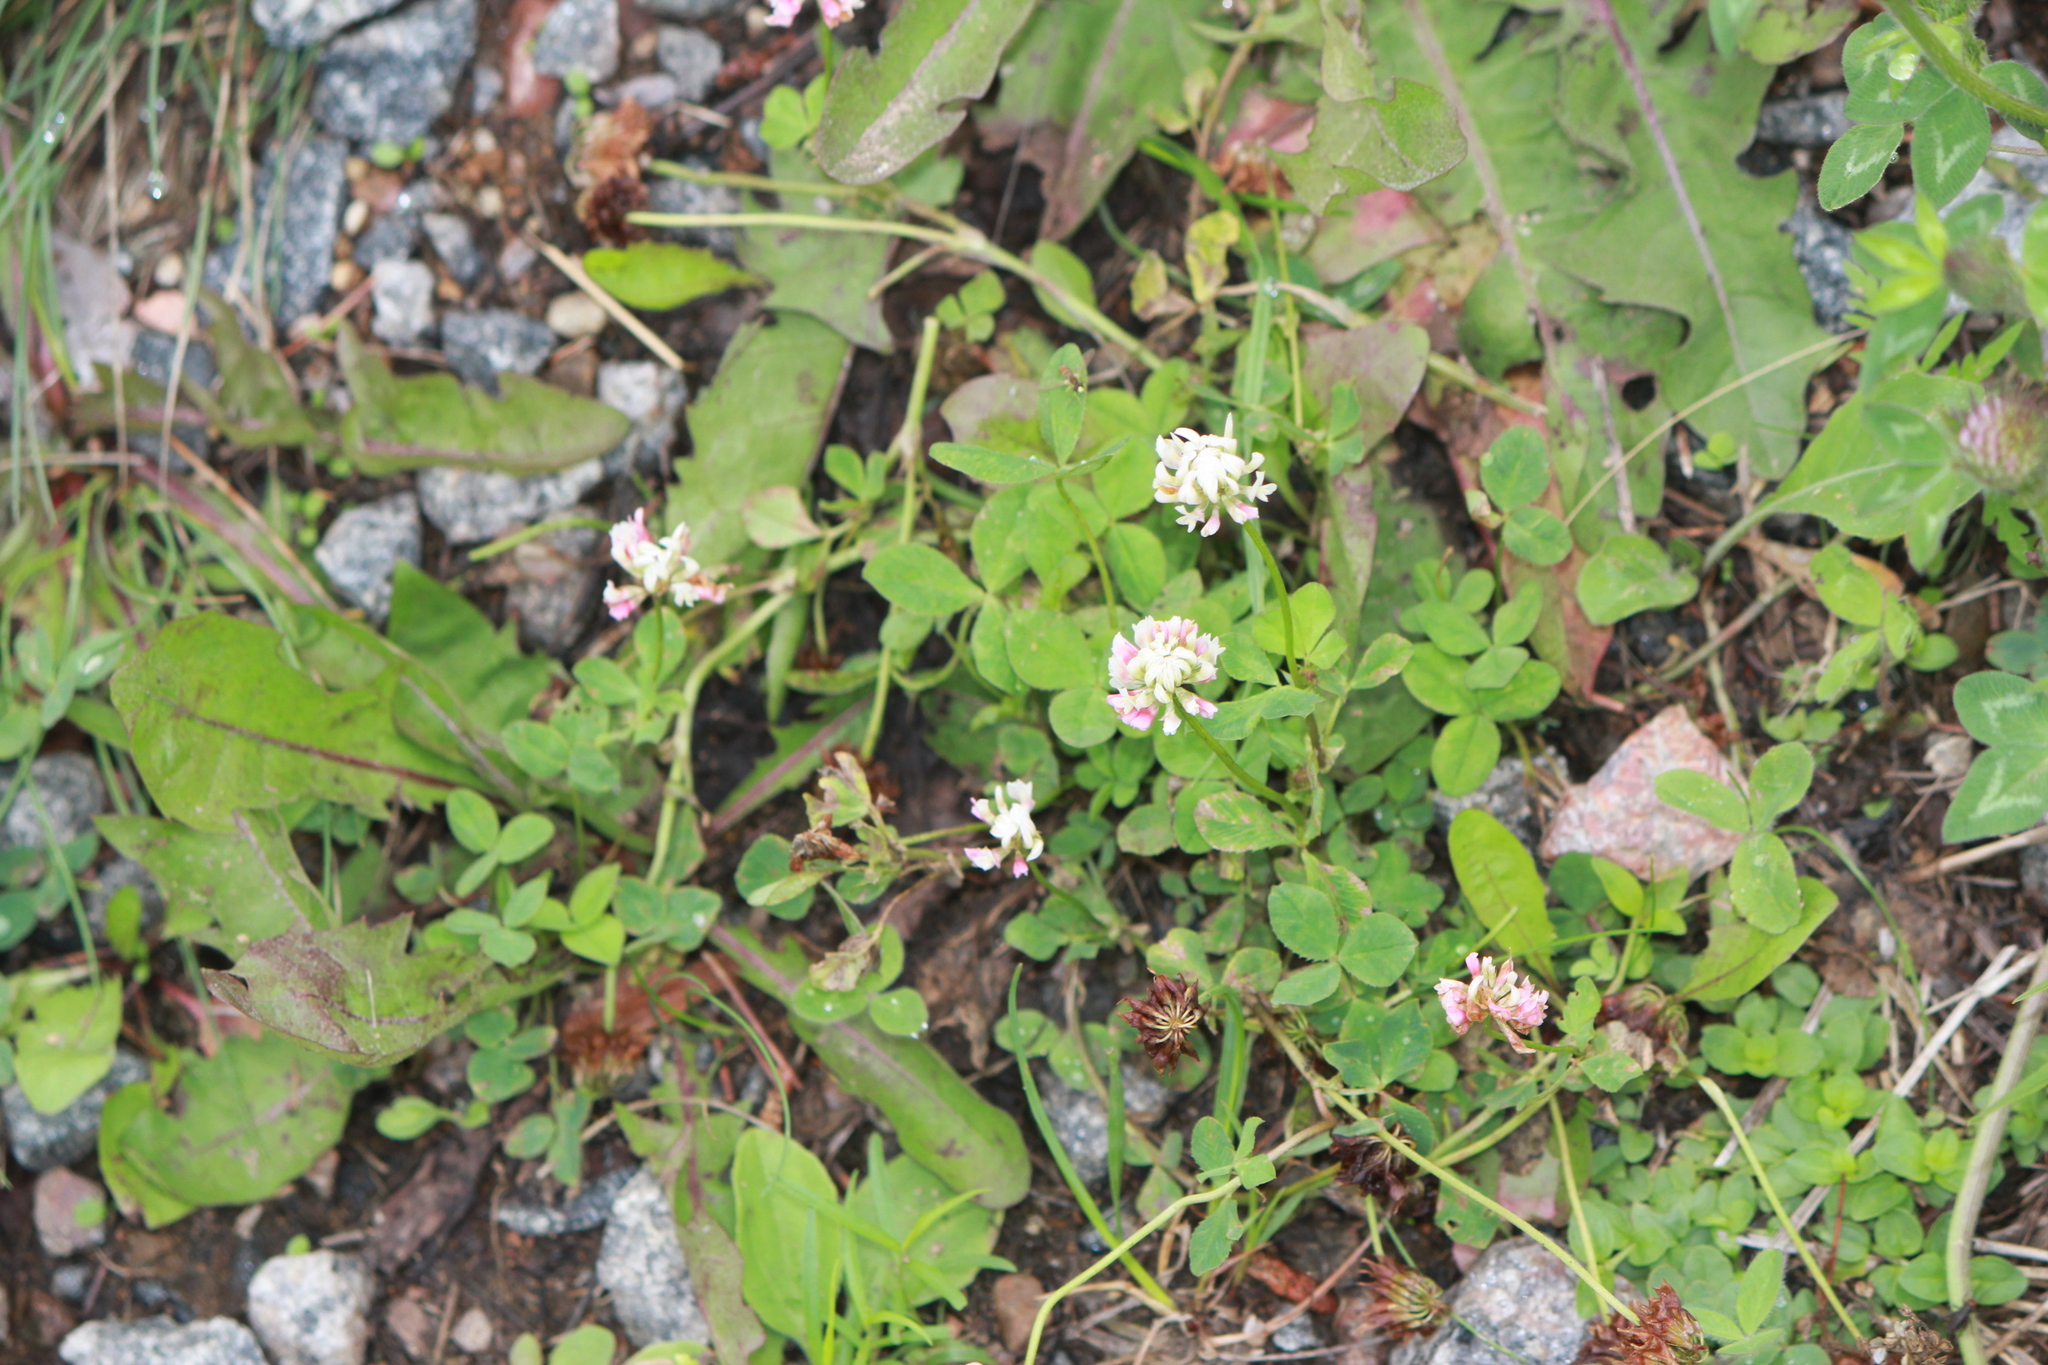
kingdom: Plantae
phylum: Tracheophyta
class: Magnoliopsida
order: Fabales
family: Fabaceae
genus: Trifolium
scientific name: Trifolium hybridum
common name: Alsike clover
